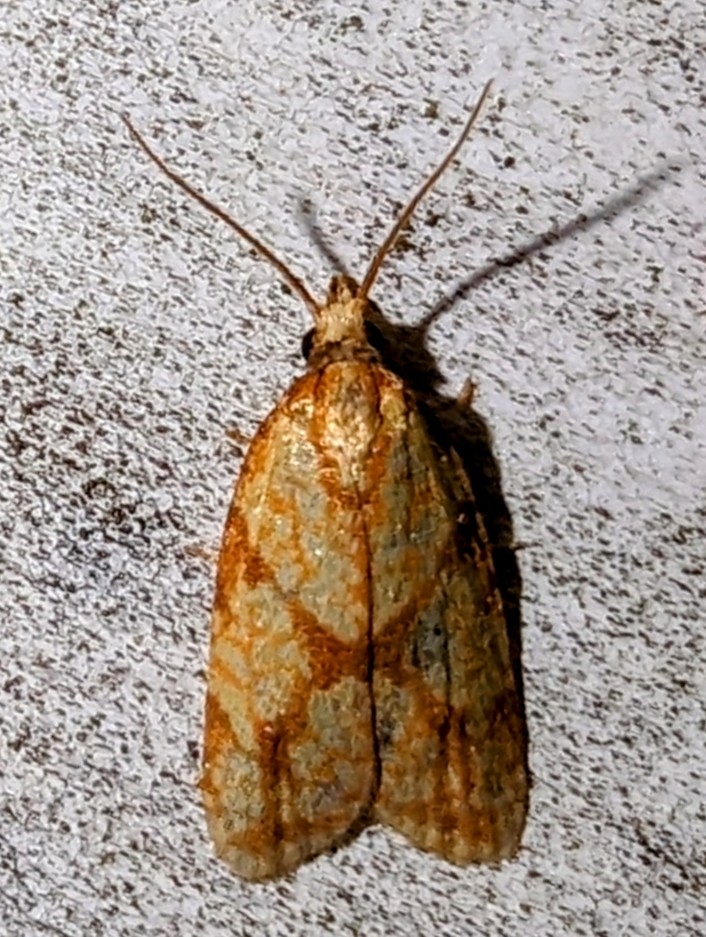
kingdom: Animalia
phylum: Arthropoda
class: Insecta
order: Lepidoptera
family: Tortricidae
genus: Sparganothis
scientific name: Sparganothis sulfureana
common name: Sparganothis fruitworm moth
